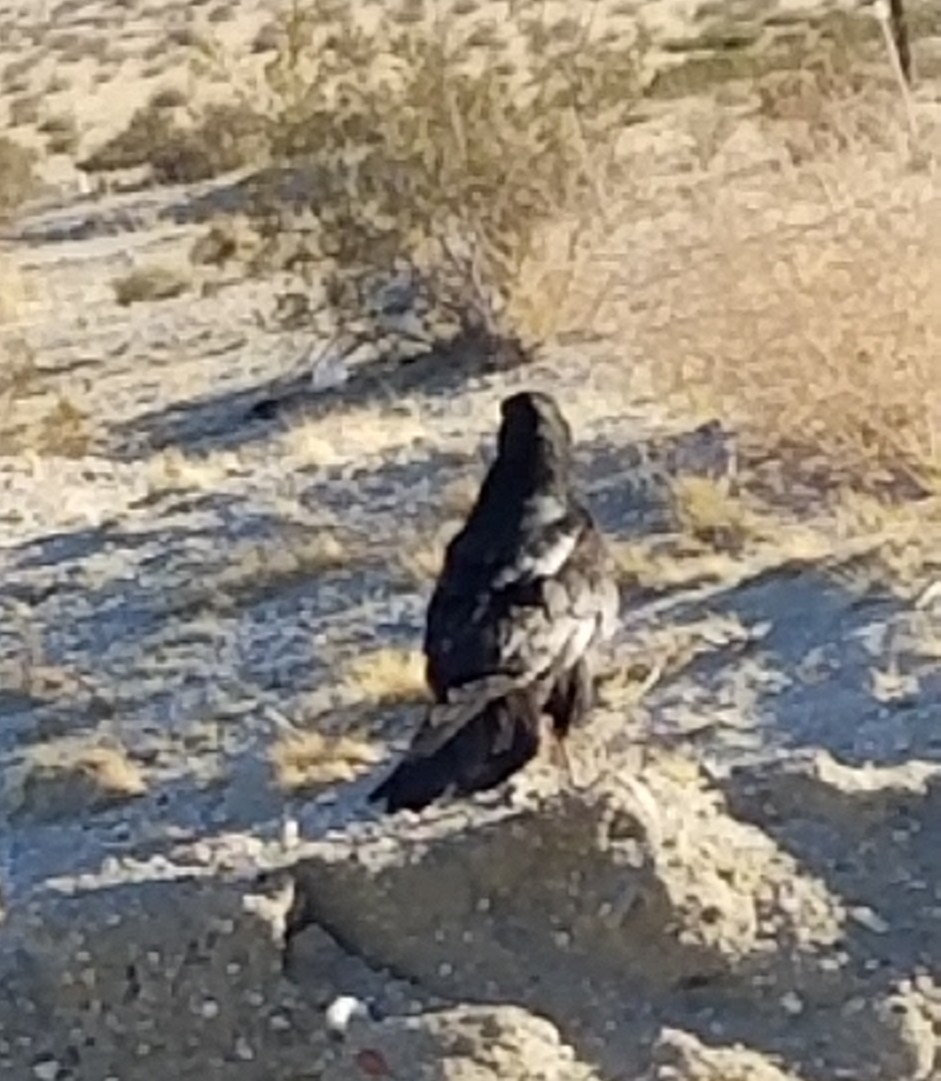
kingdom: Animalia
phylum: Chordata
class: Aves
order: Passeriformes
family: Corvidae
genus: Corvus
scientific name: Corvus corax
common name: Common raven
